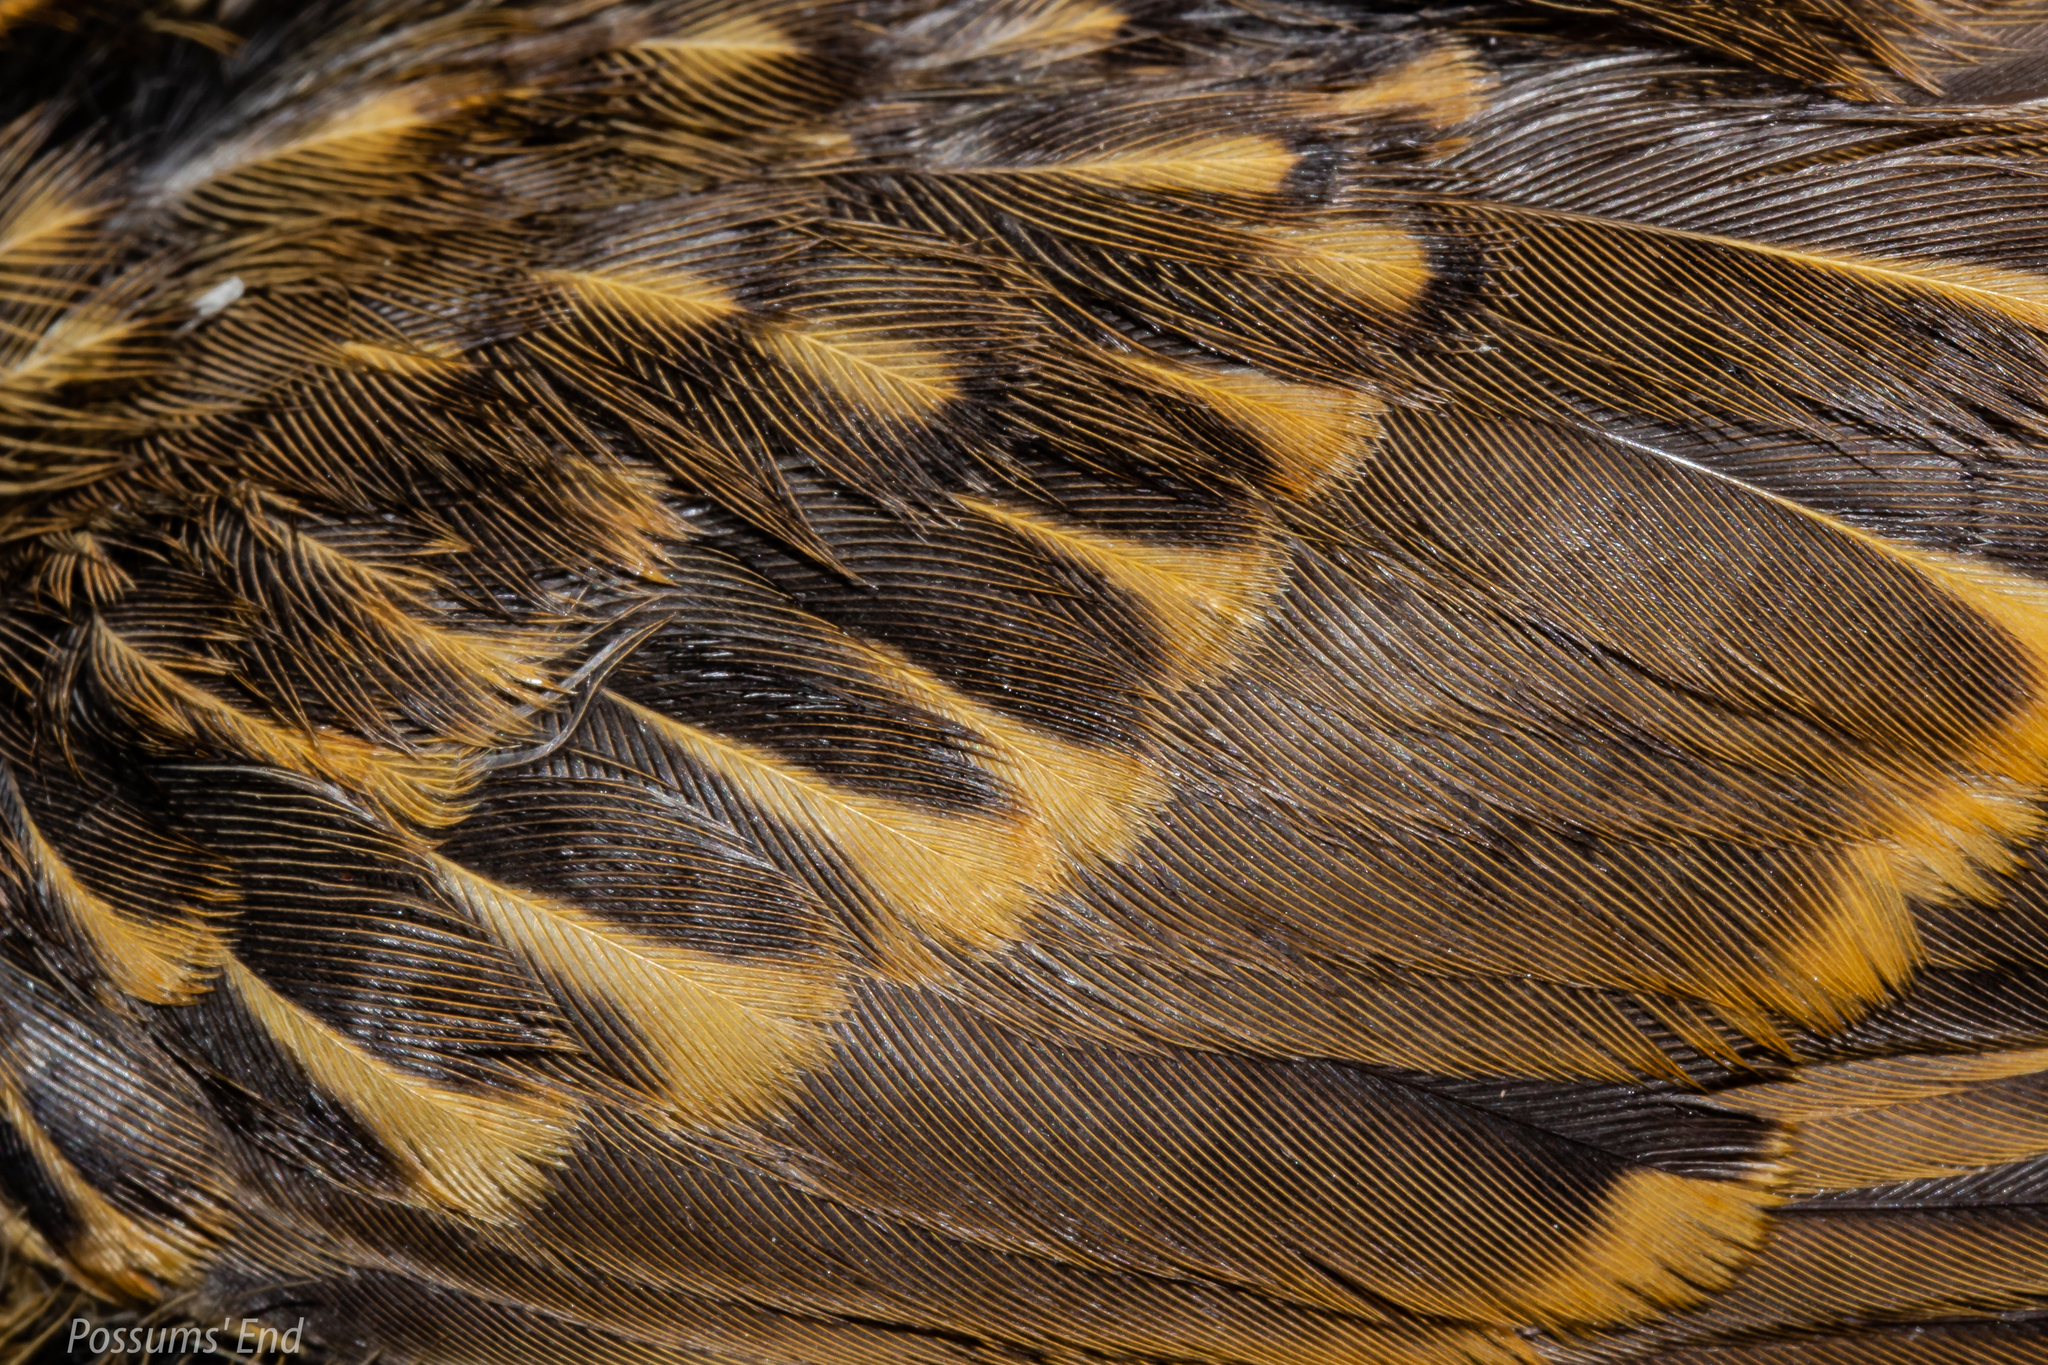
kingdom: Animalia
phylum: Chordata
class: Aves
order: Passeriformes
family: Turdidae
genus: Turdus
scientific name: Turdus philomelos
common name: Song thrush
